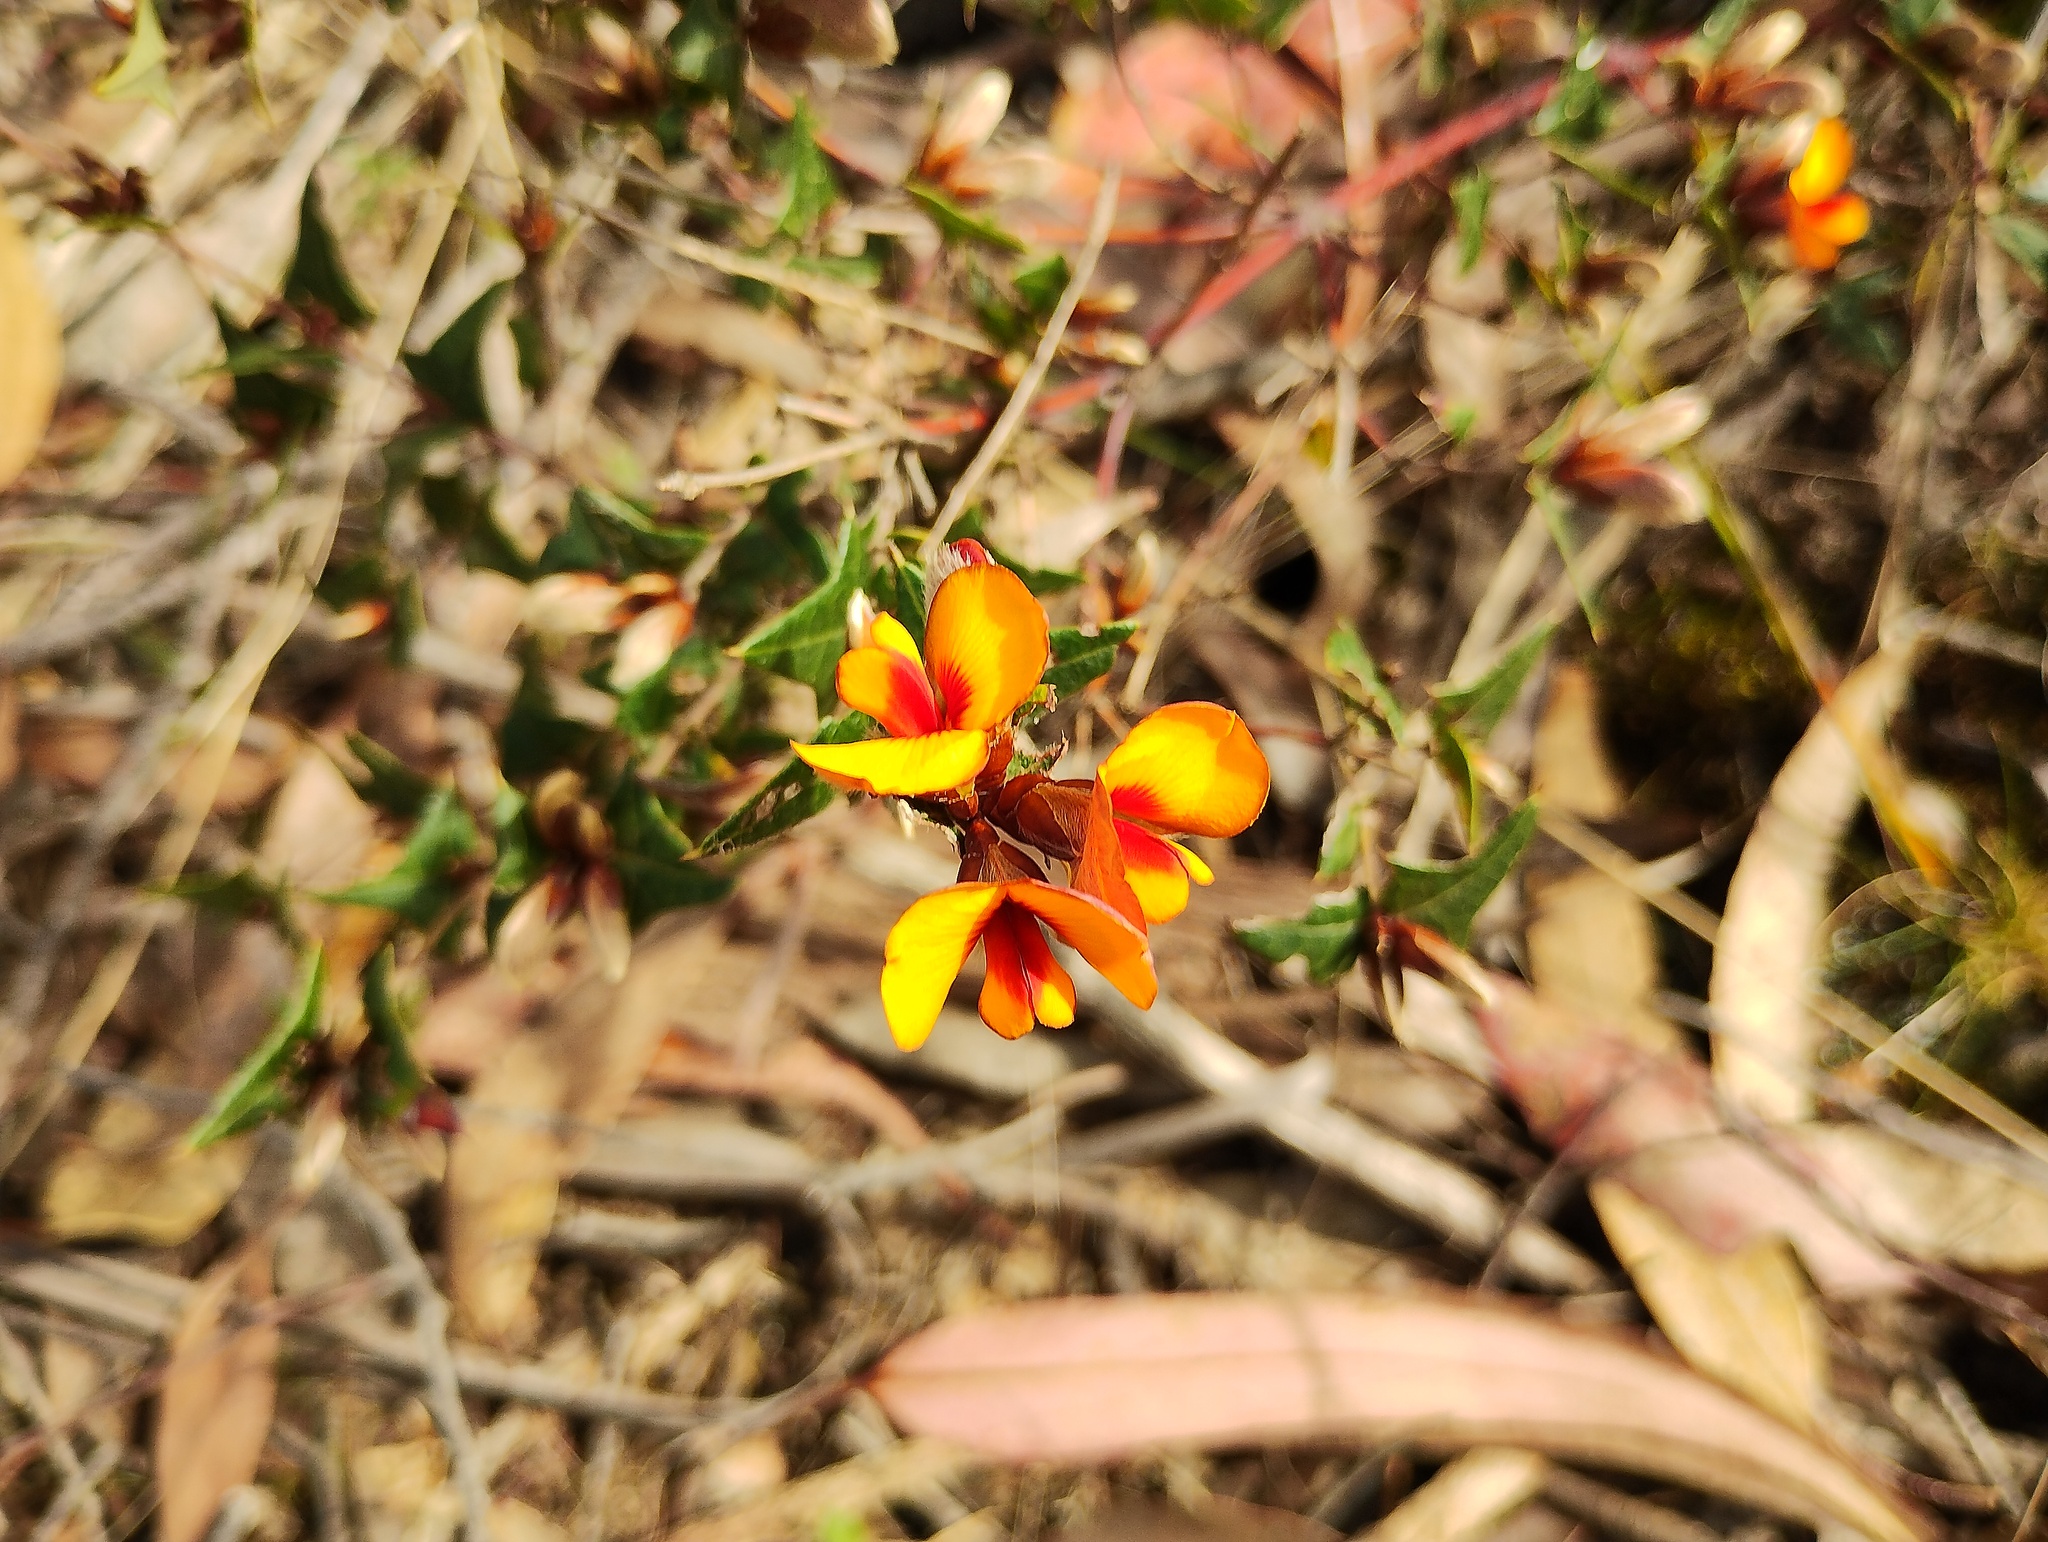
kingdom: Plantae
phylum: Tracheophyta
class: Magnoliopsida
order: Fabales
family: Fabaceae
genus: Platylobium
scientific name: Platylobium obtusangulum
